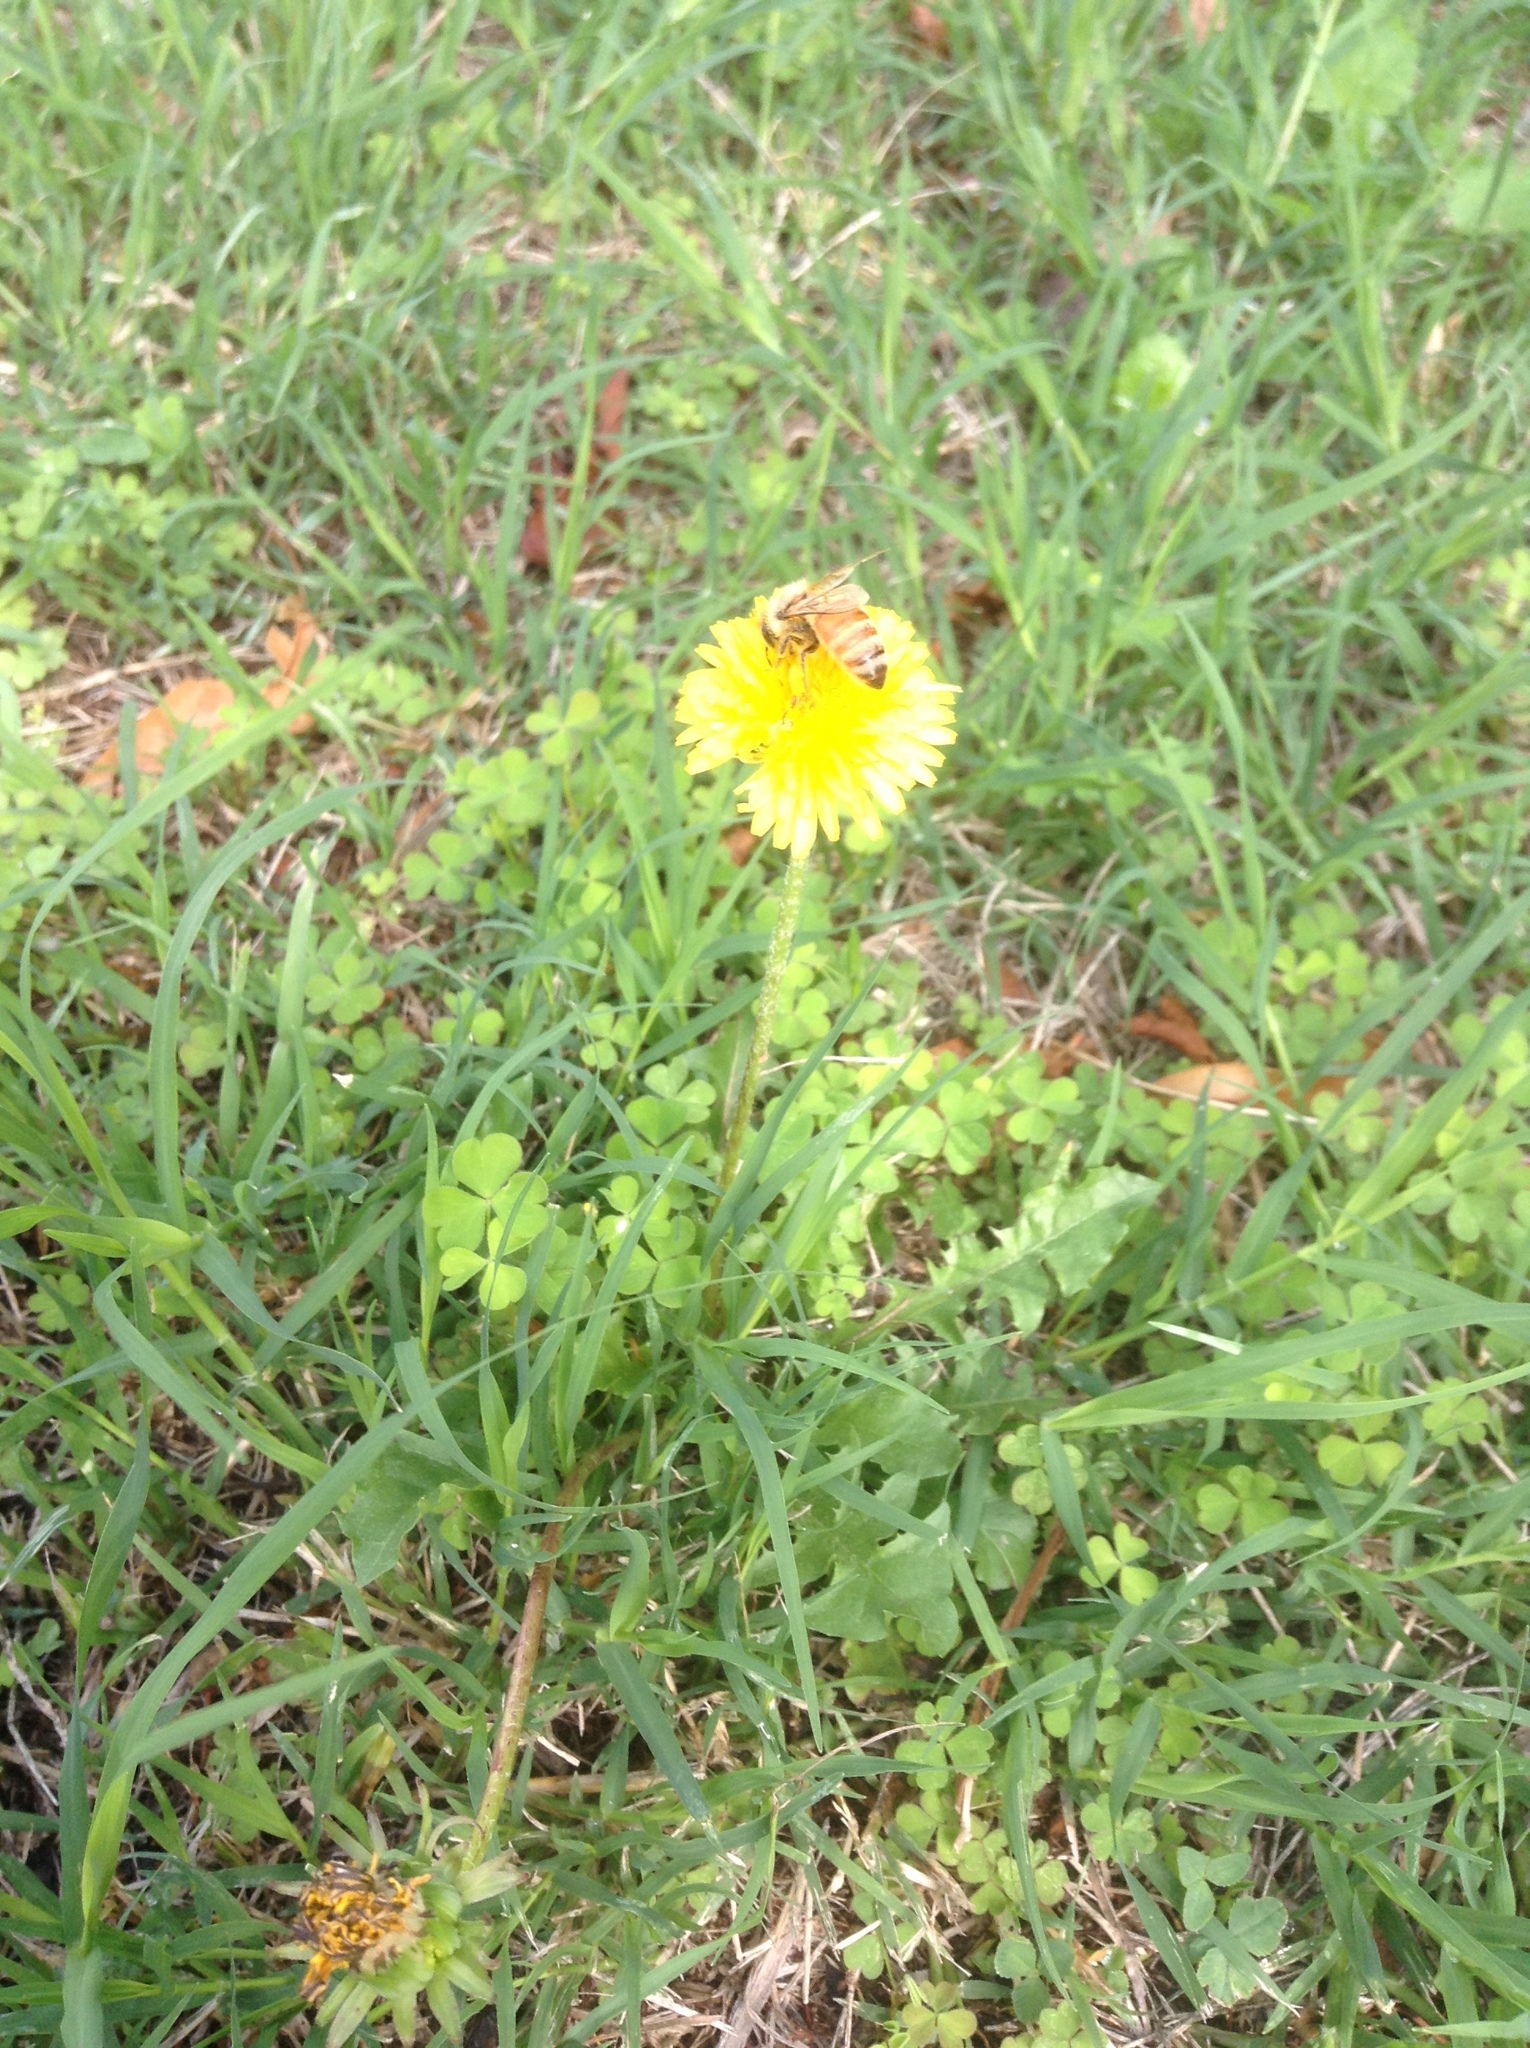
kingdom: Plantae
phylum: Tracheophyta
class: Magnoliopsida
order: Asterales
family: Asteraceae
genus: Taraxacum
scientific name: Taraxacum officinale
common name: Common dandelion
